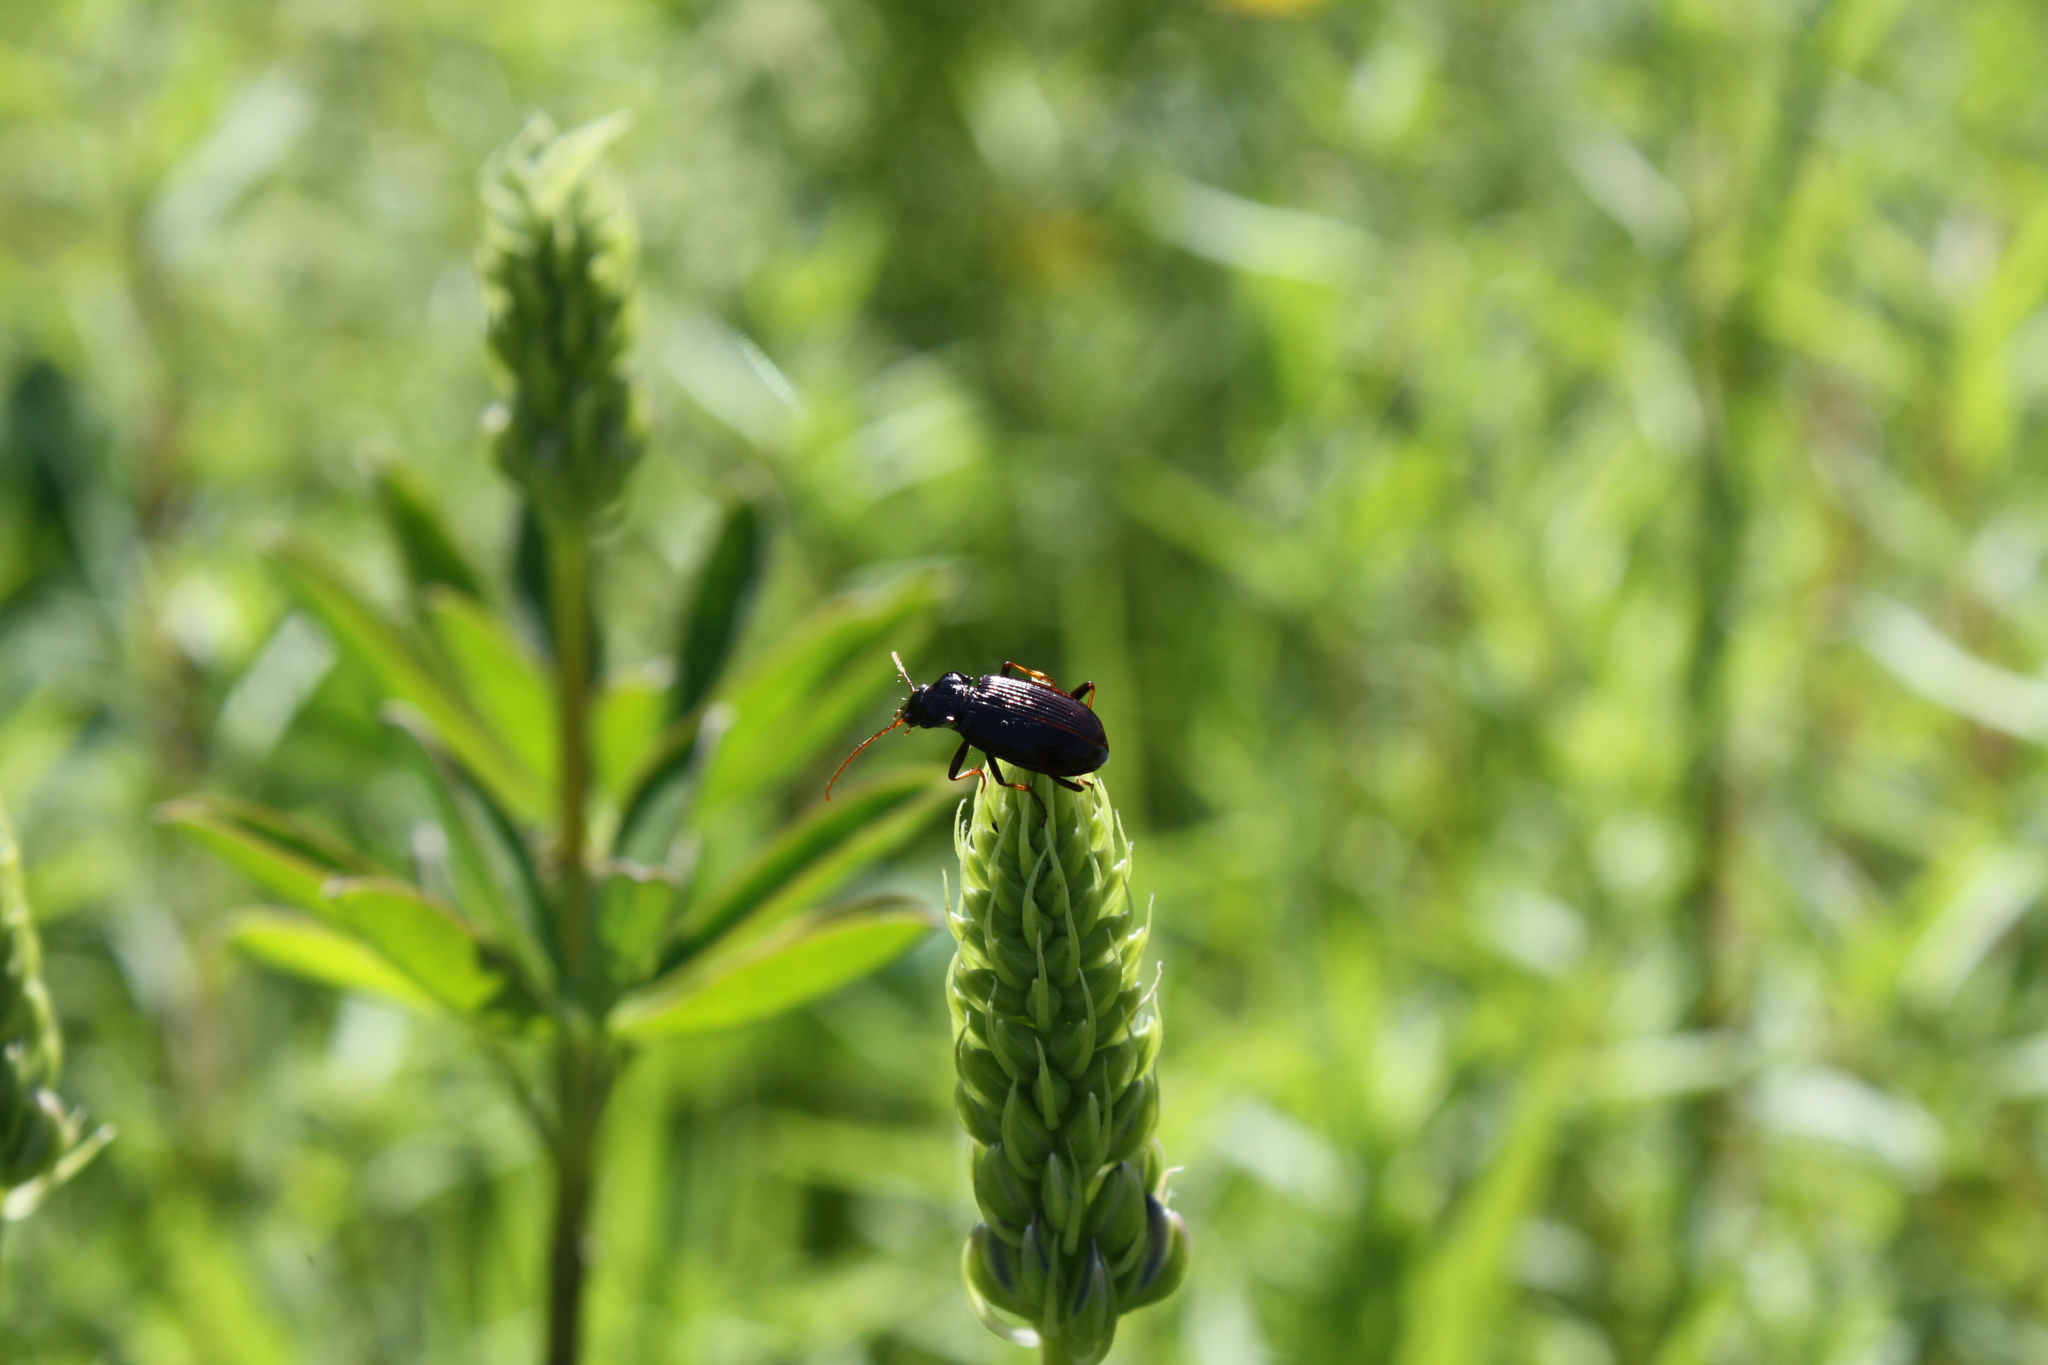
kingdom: Animalia
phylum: Arthropoda
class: Insecta
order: Coleoptera
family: Carabidae
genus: Nebria
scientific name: Nebria brevicollis
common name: Short-necked gazelle beetle
